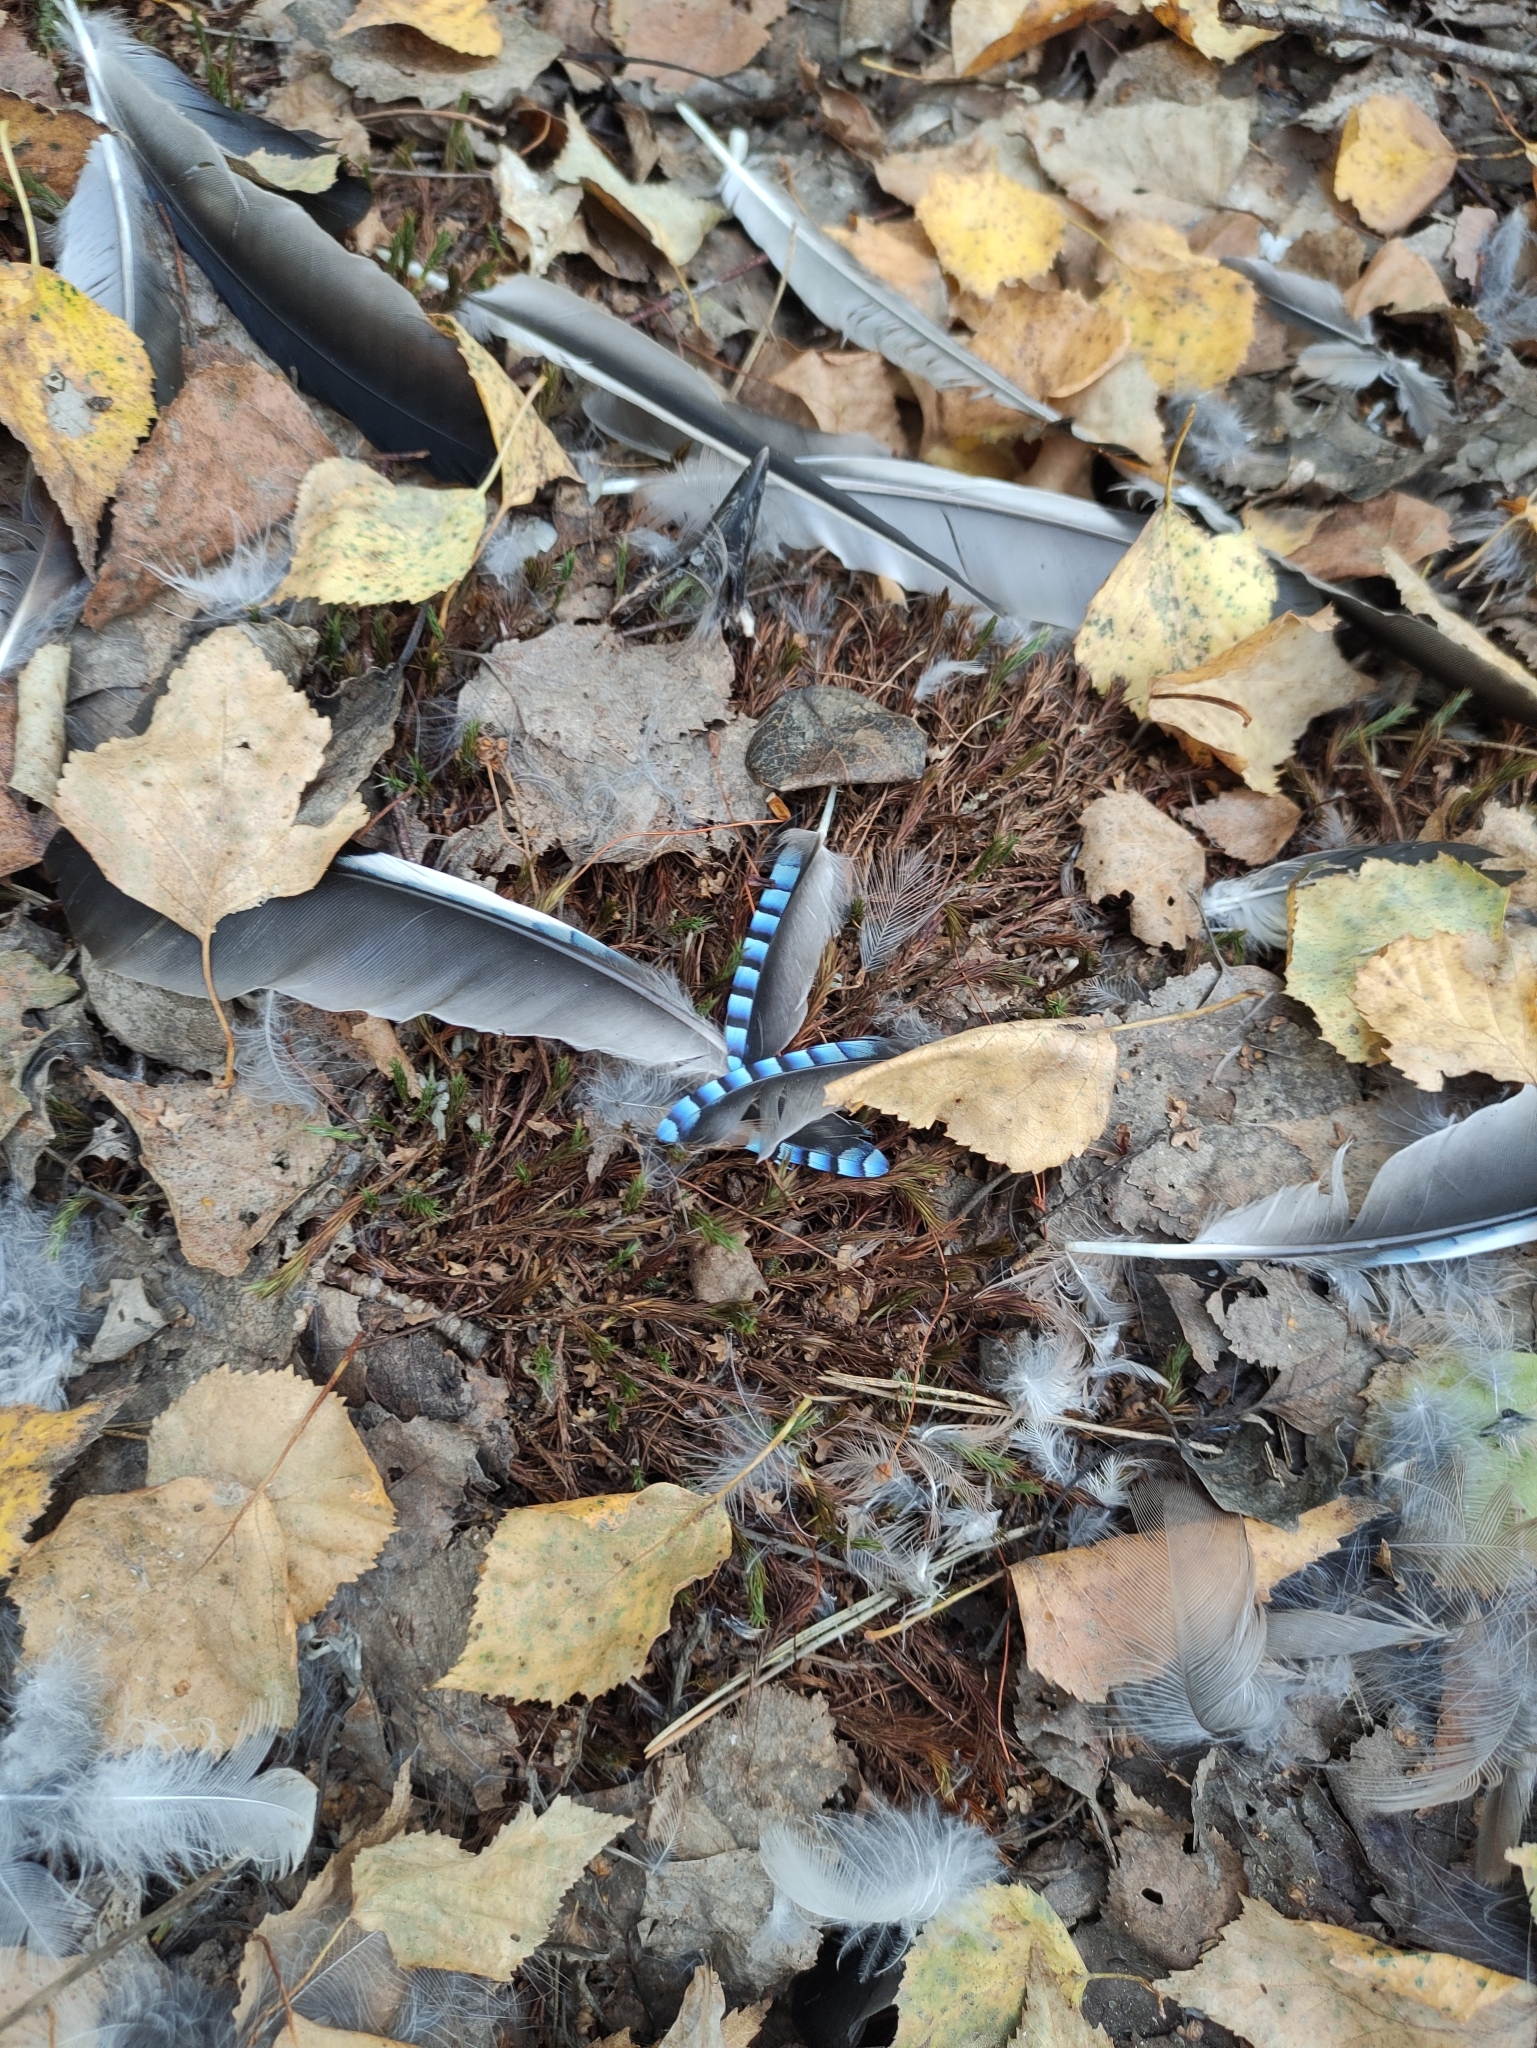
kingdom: Animalia
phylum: Chordata
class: Aves
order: Passeriformes
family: Corvidae
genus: Garrulus
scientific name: Garrulus glandarius
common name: Eurasian jay
